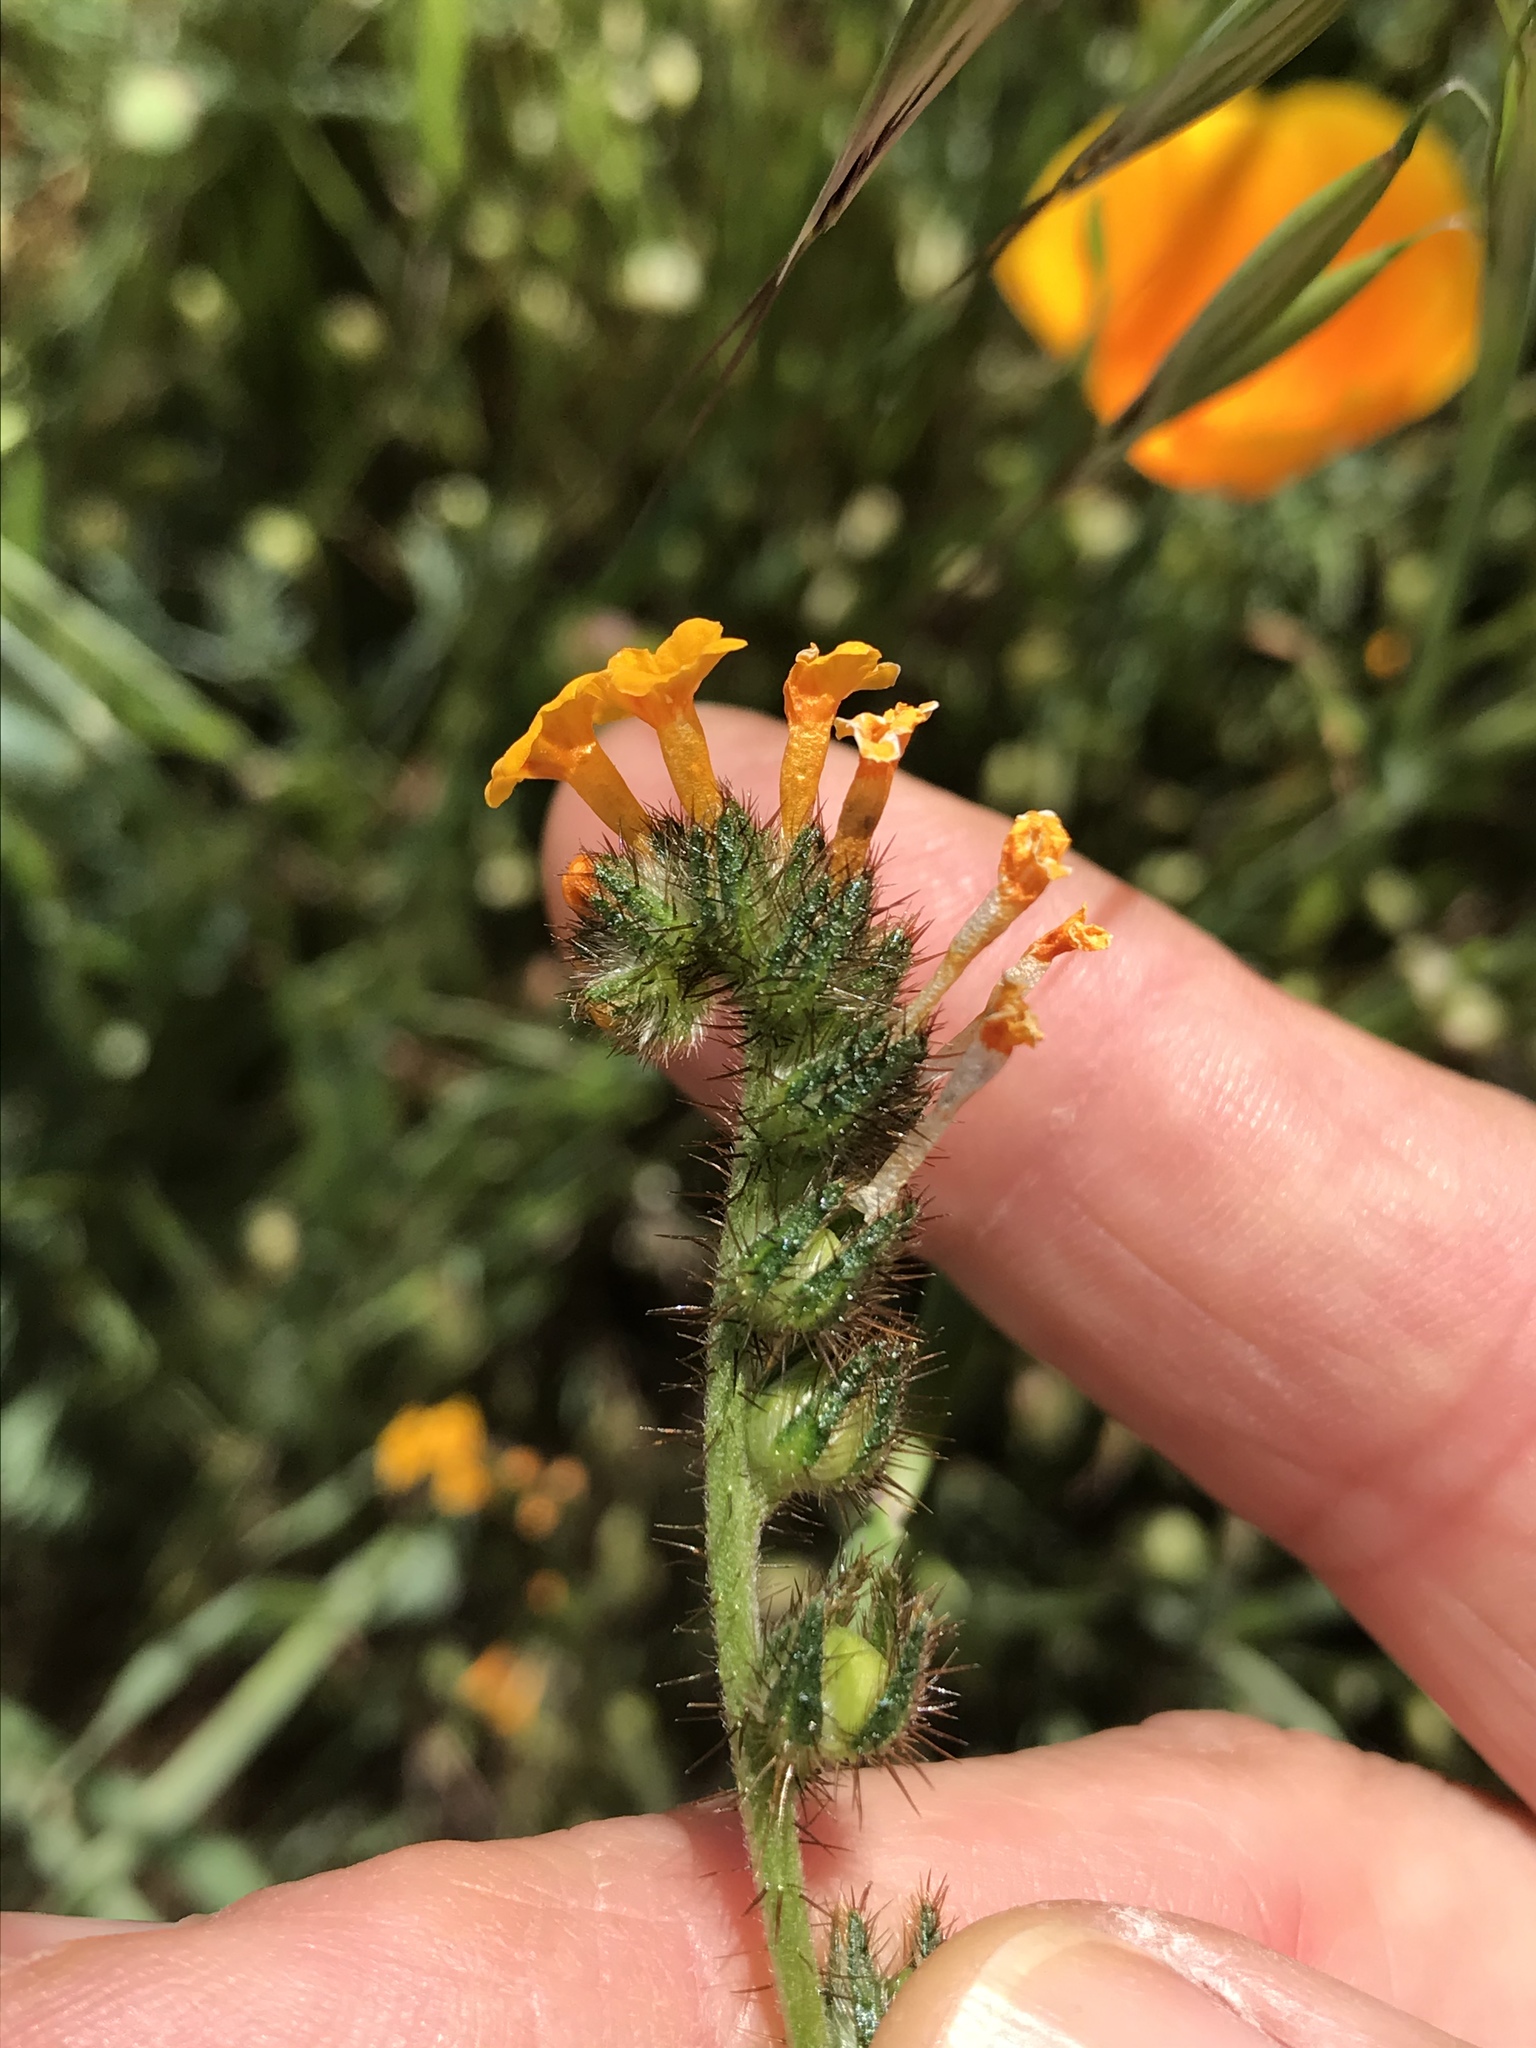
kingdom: Plantae
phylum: Tracheophyta
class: Magnoliopsida
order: Boraginales
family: Boraginaceae
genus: Amsinckia
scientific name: Amsinckia menziesii
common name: Menzies' fiddleneck
